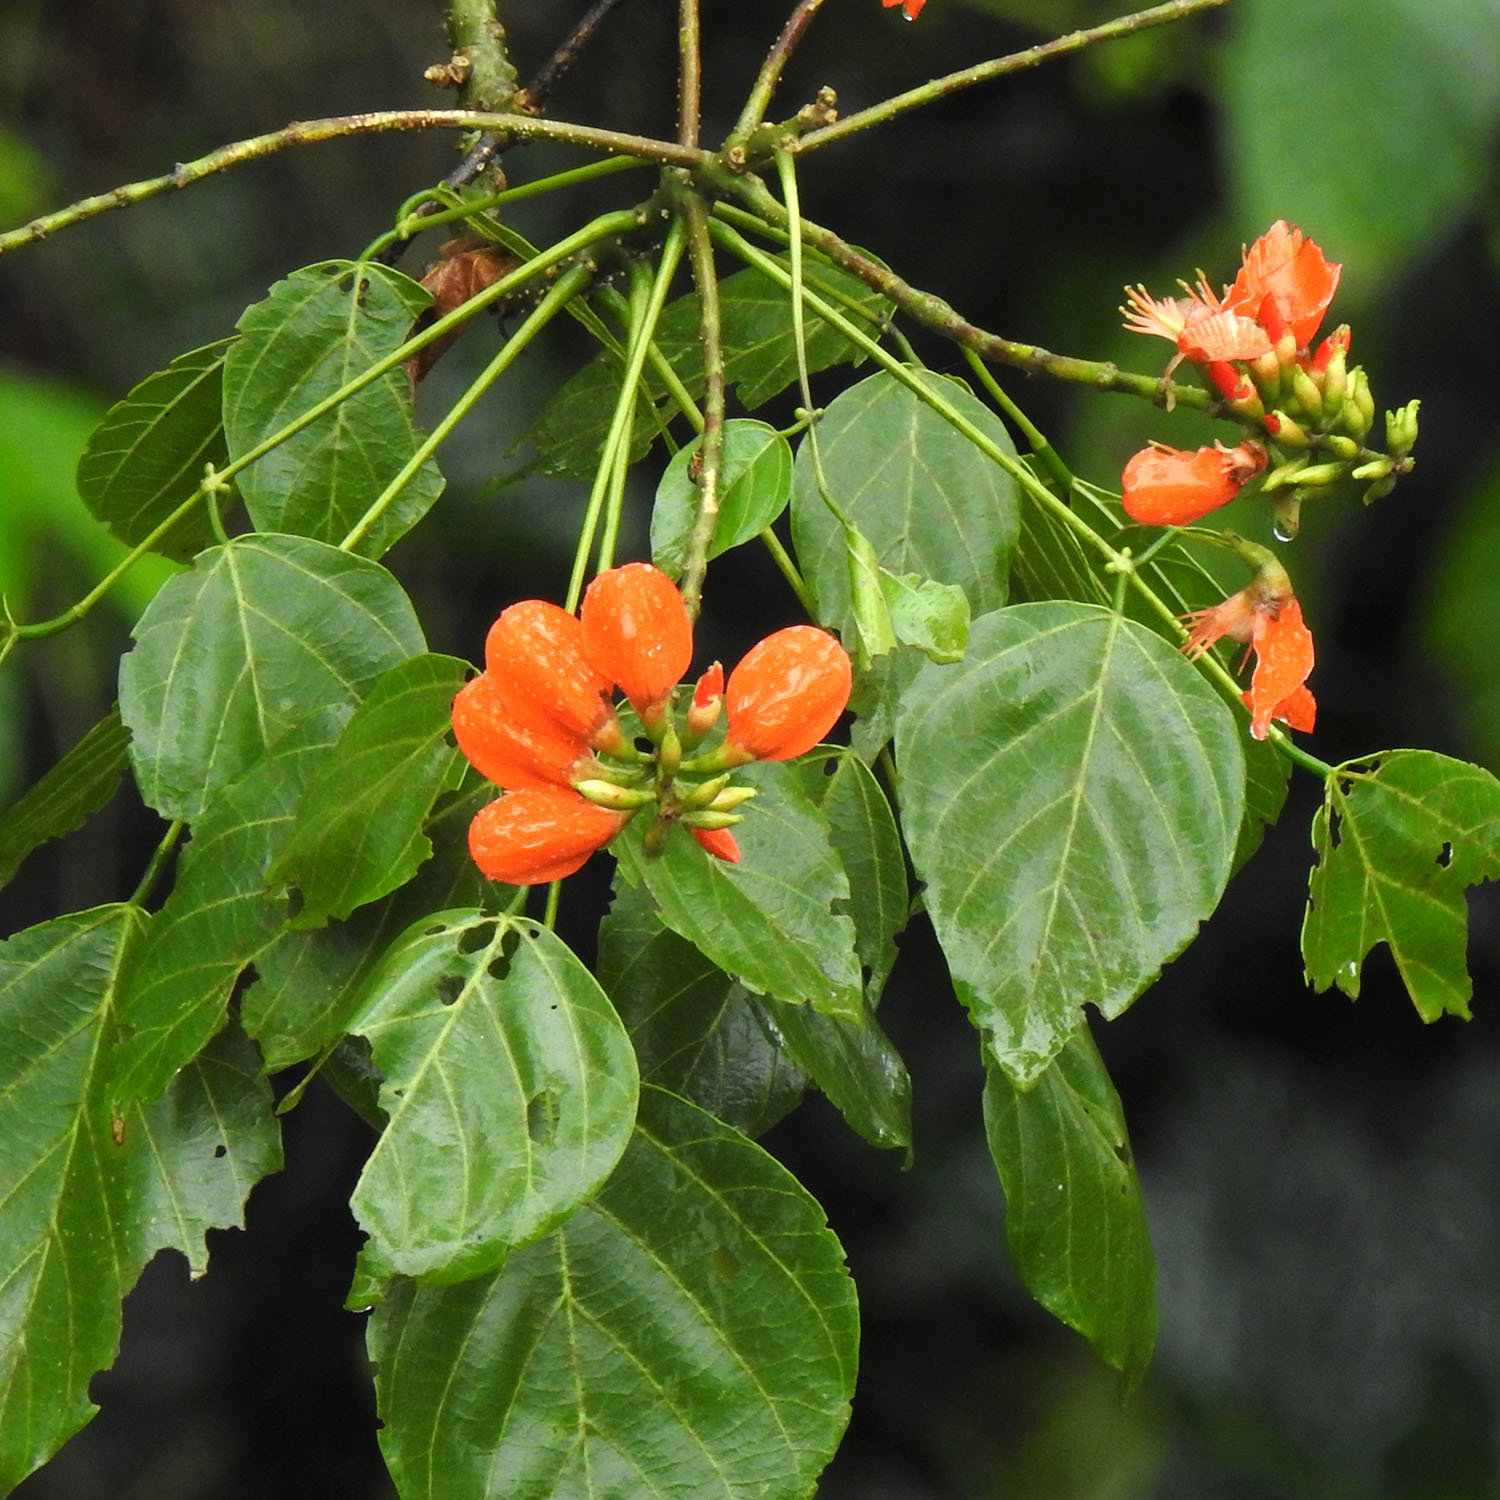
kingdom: Plantae
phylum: Tracheophyta
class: Magnoliopsida
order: Fabales
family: Fabaceae
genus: Erythrina
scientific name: Erythrina subumbrans
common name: December-tree
